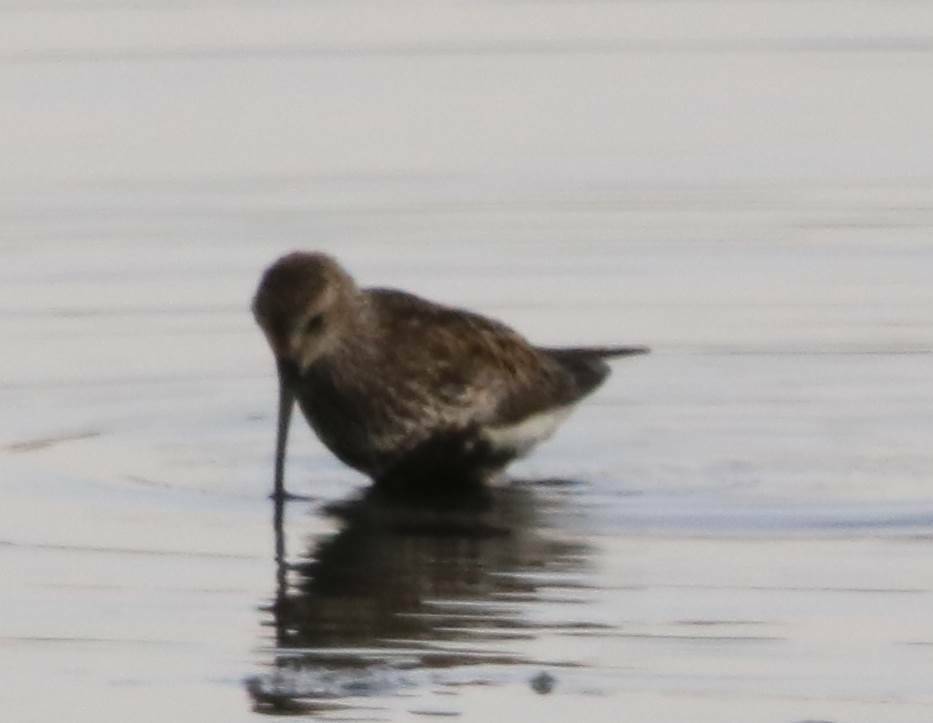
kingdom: Animalia
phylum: Chordata
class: Aves
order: Charadriiformes
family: Scolopacidae
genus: Calidris
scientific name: Calidris alpina
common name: Dunlin
